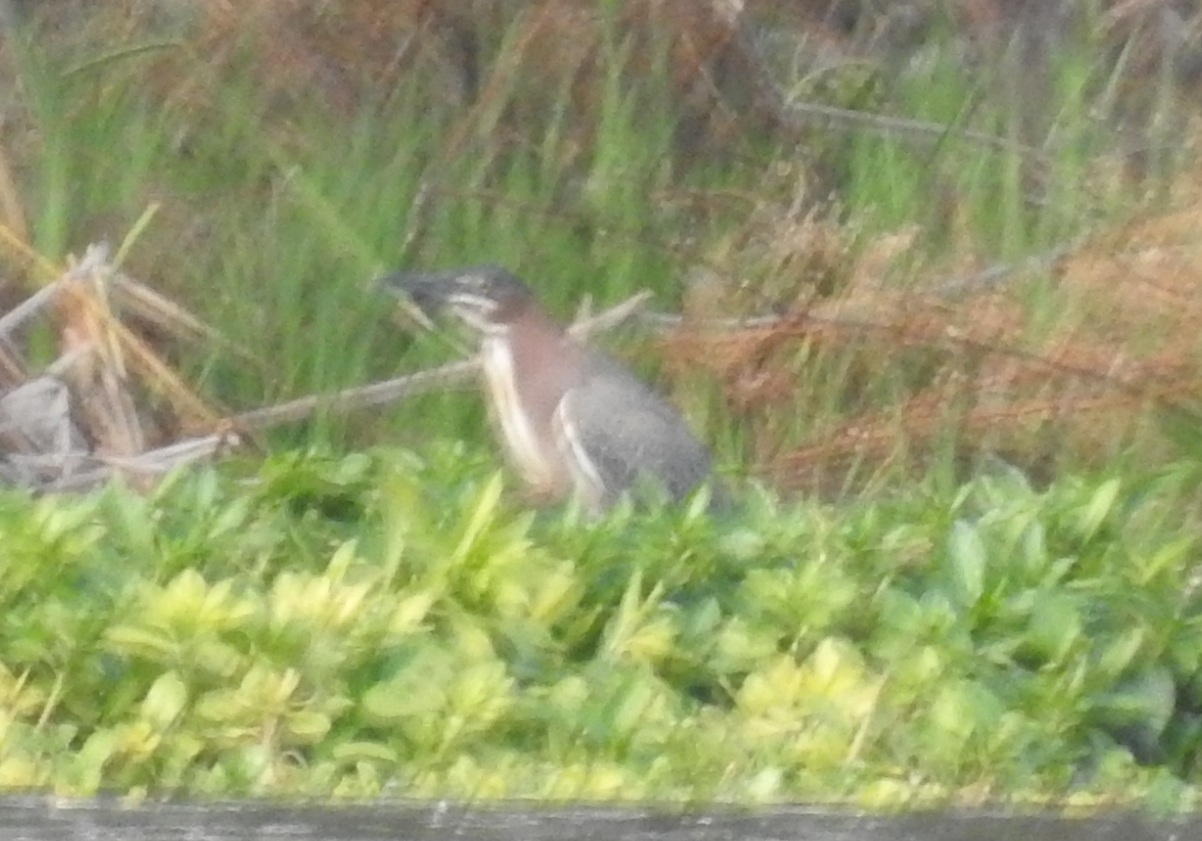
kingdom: Animalia
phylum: Chordata
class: Aves
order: Pelecaniformes
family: Ardeidae
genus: Butorides
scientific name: Butorides virescens
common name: Green heron
